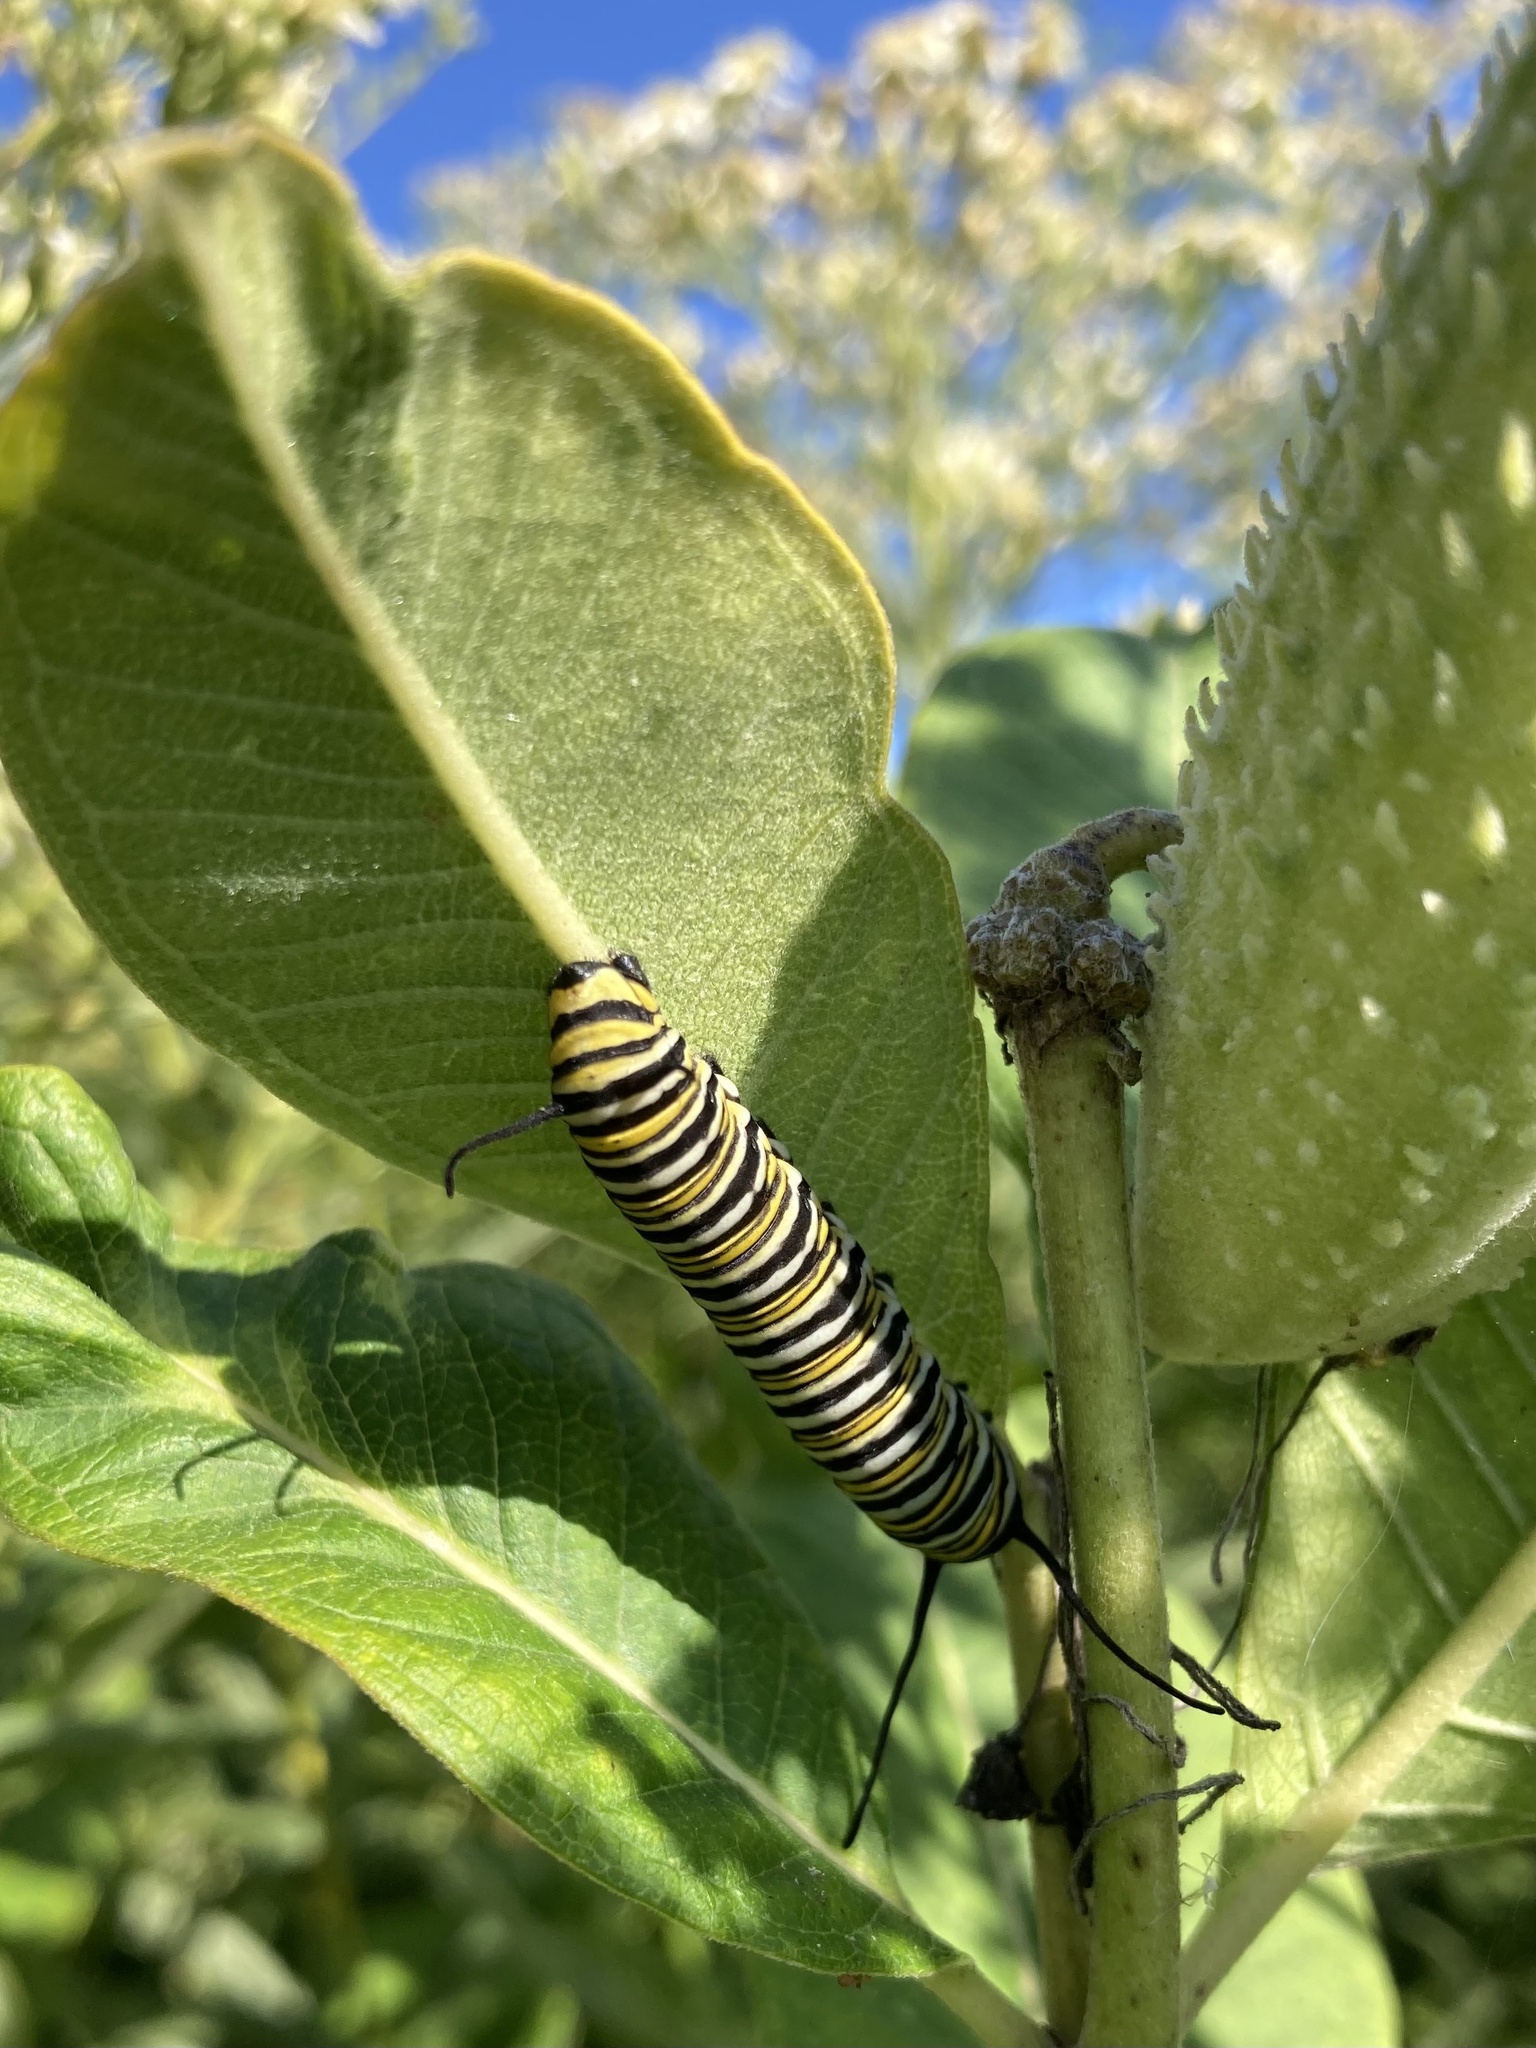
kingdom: Animalia
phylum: Arthropoda
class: Insecta
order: Lepidoptera
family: Nymphalidae
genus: Danaus
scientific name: Danaus plexippus
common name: Monarch
